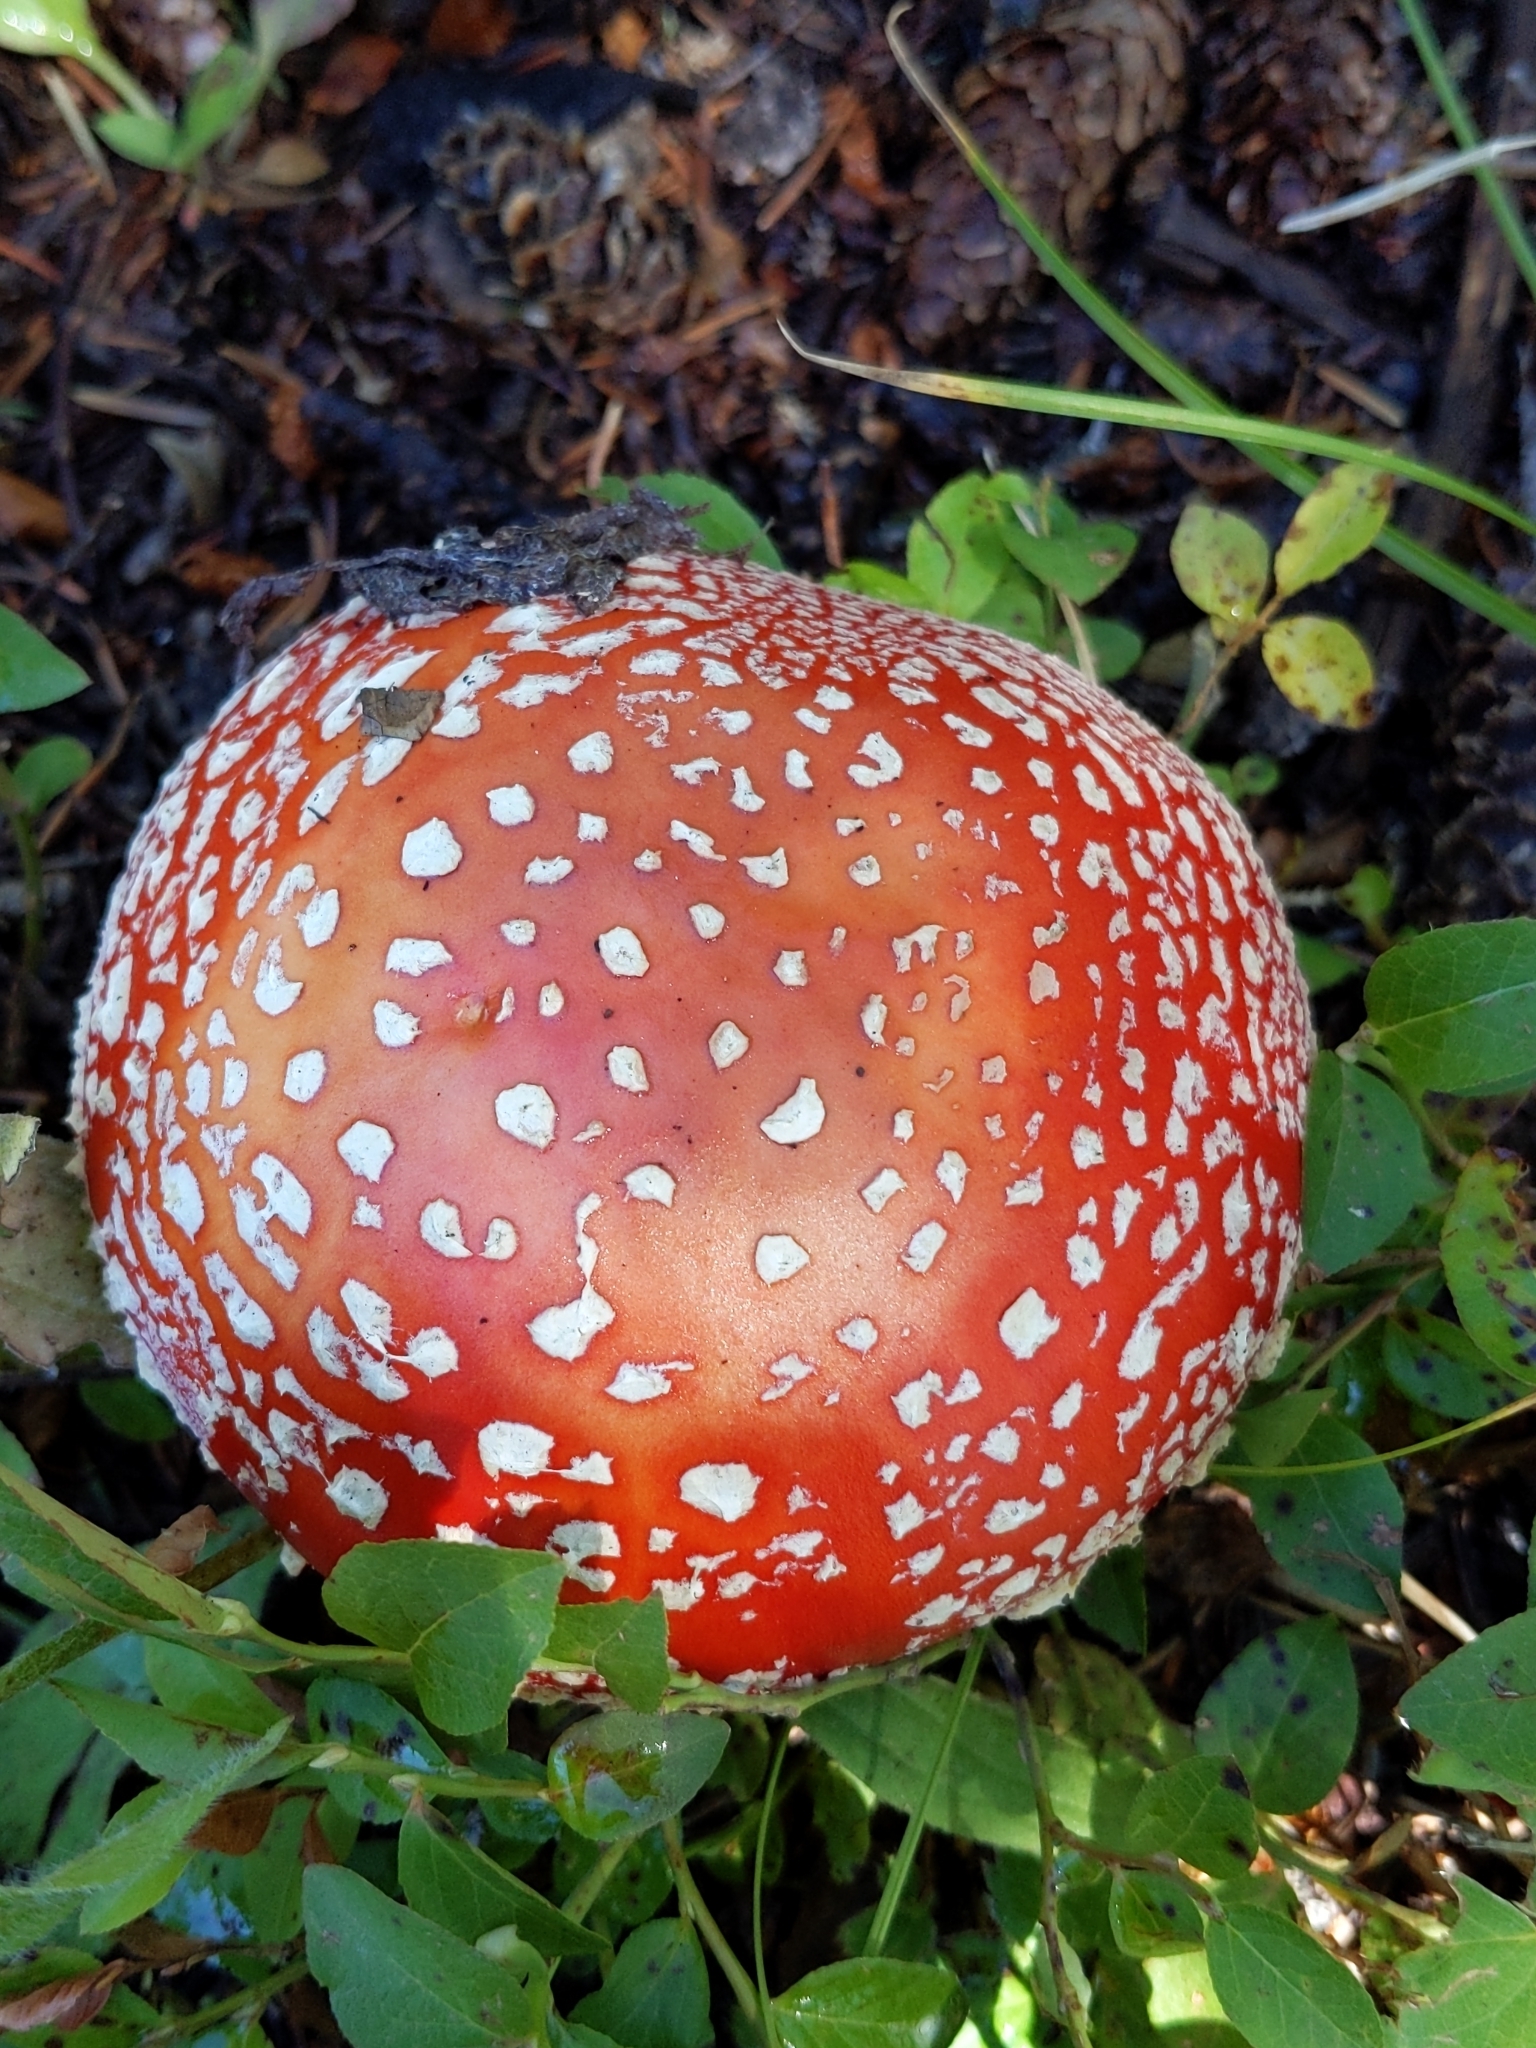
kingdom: Fungi
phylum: Basidiomycota
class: Agaricomycetes
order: Agaricales
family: Amanitaceae
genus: Amanita
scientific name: Amanita muscaria
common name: Fly agaric
